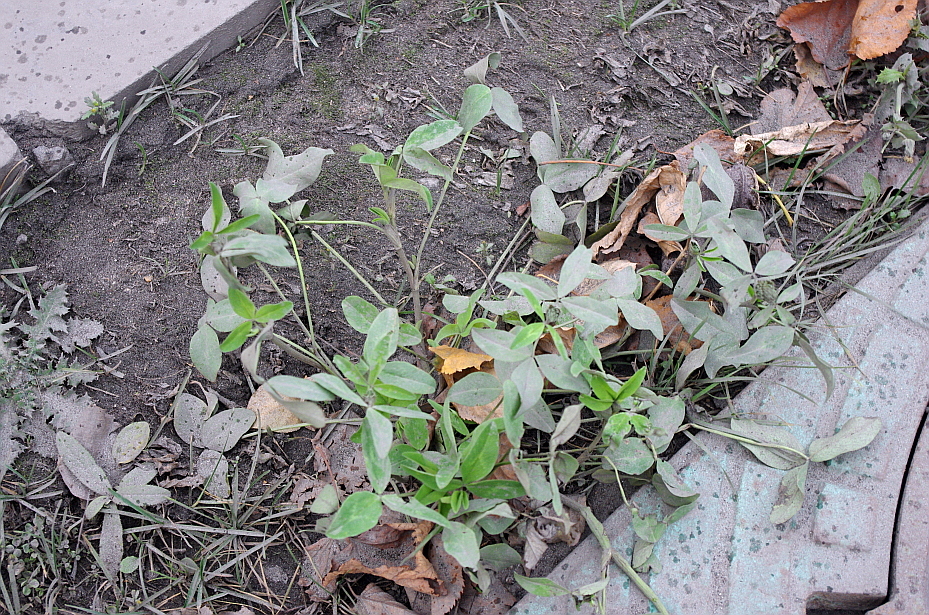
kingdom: Plantae
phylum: Tracheophyta
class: Magnoliopsida
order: Fabales
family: Fabaceae
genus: Trifolium
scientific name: Trifolium pratense
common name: Red clover
